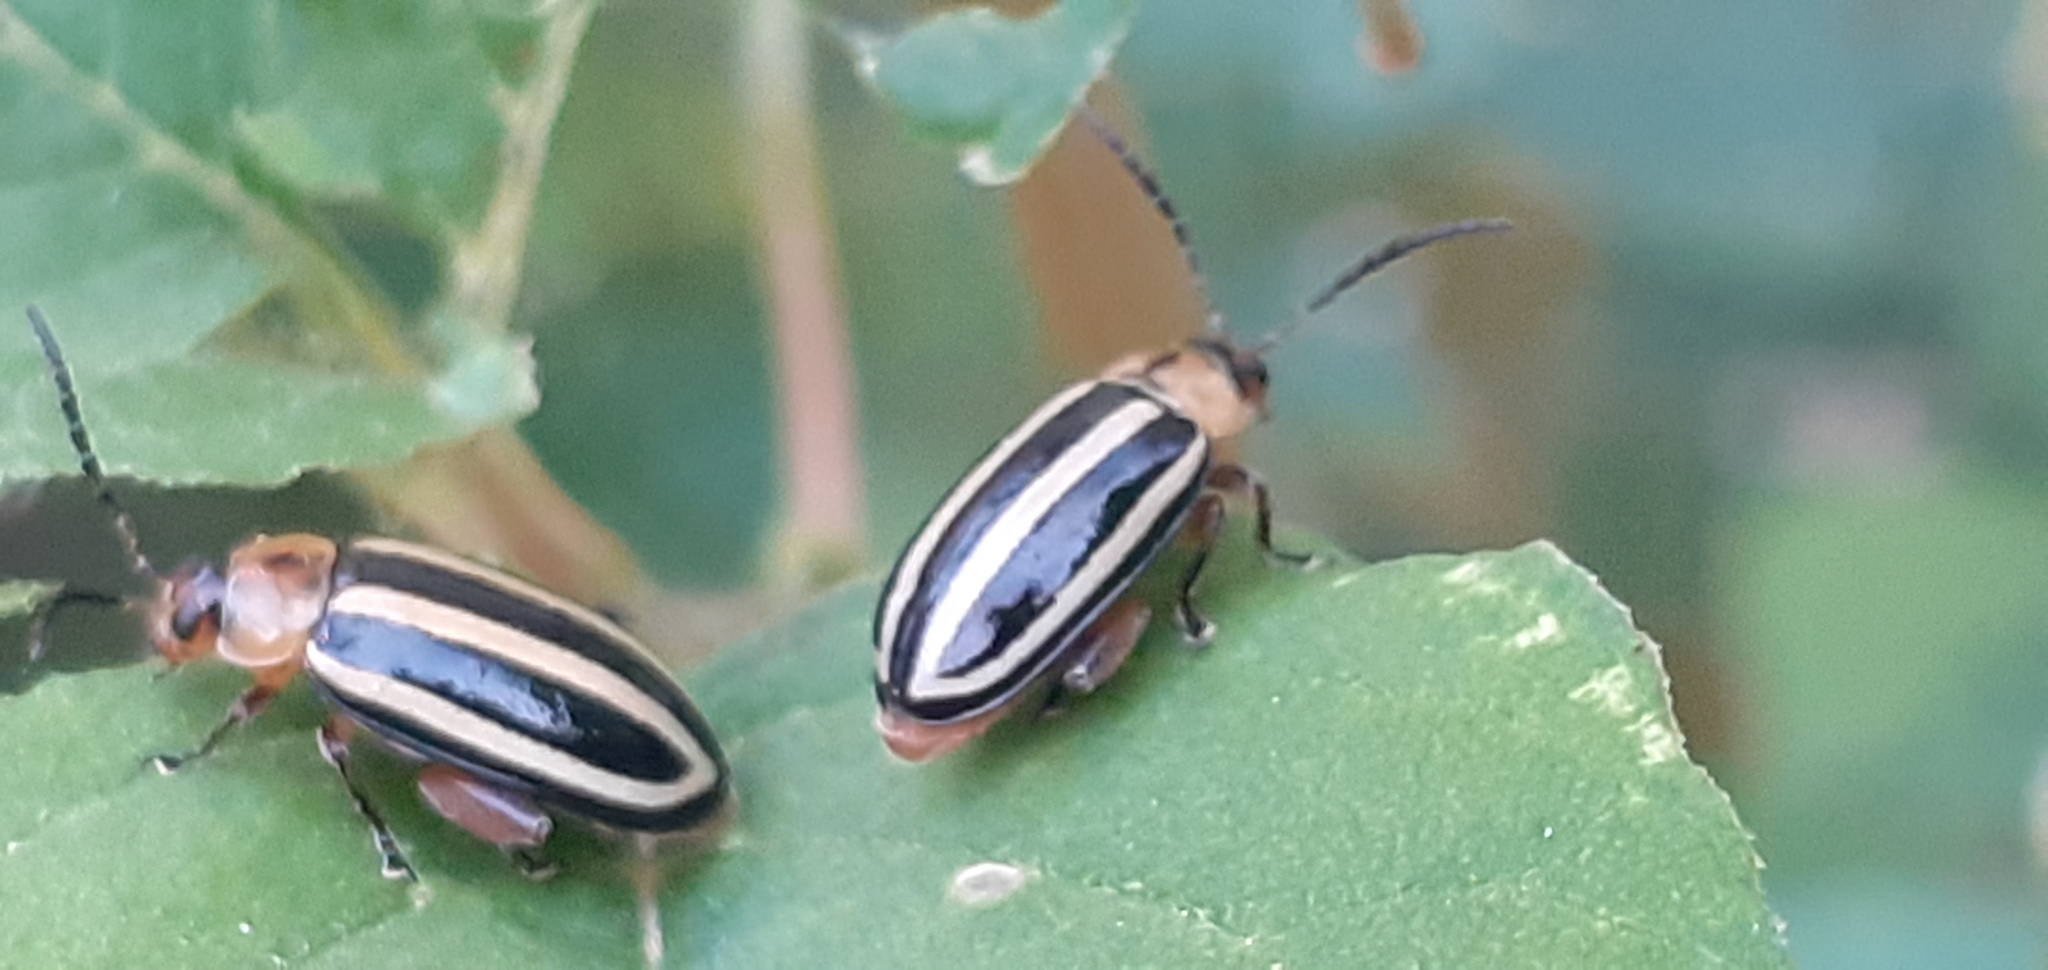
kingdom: Animalia
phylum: Arthropoda
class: Insecta
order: Coleoptera
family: Chrysomelidae
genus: Disonycha
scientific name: Disonycha glabrata
